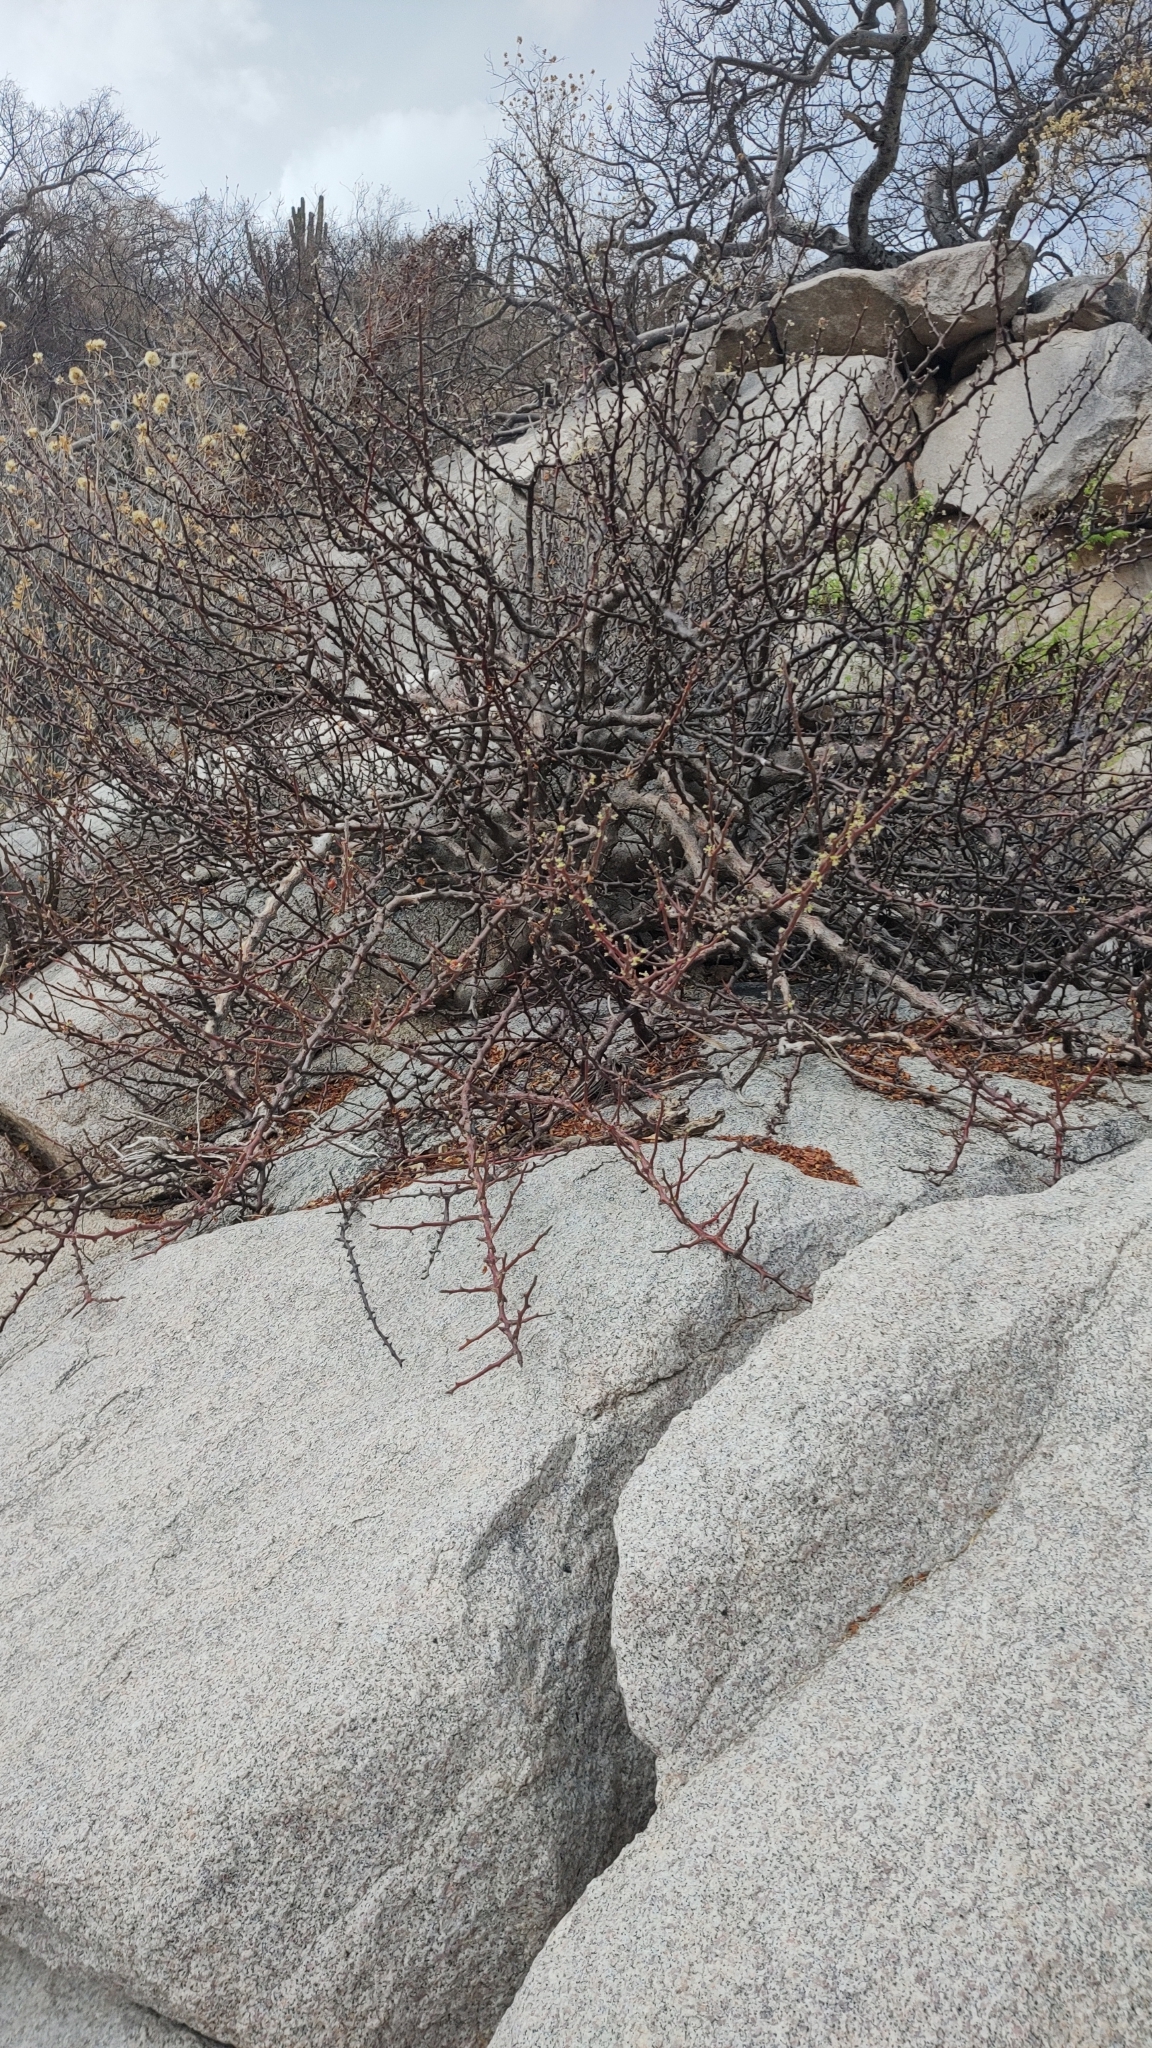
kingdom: Plantae
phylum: Tracheophyta
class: Magnoliopsida
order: Sapindales
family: Burseraceae
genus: Bursera
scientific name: Bursera rupicola
